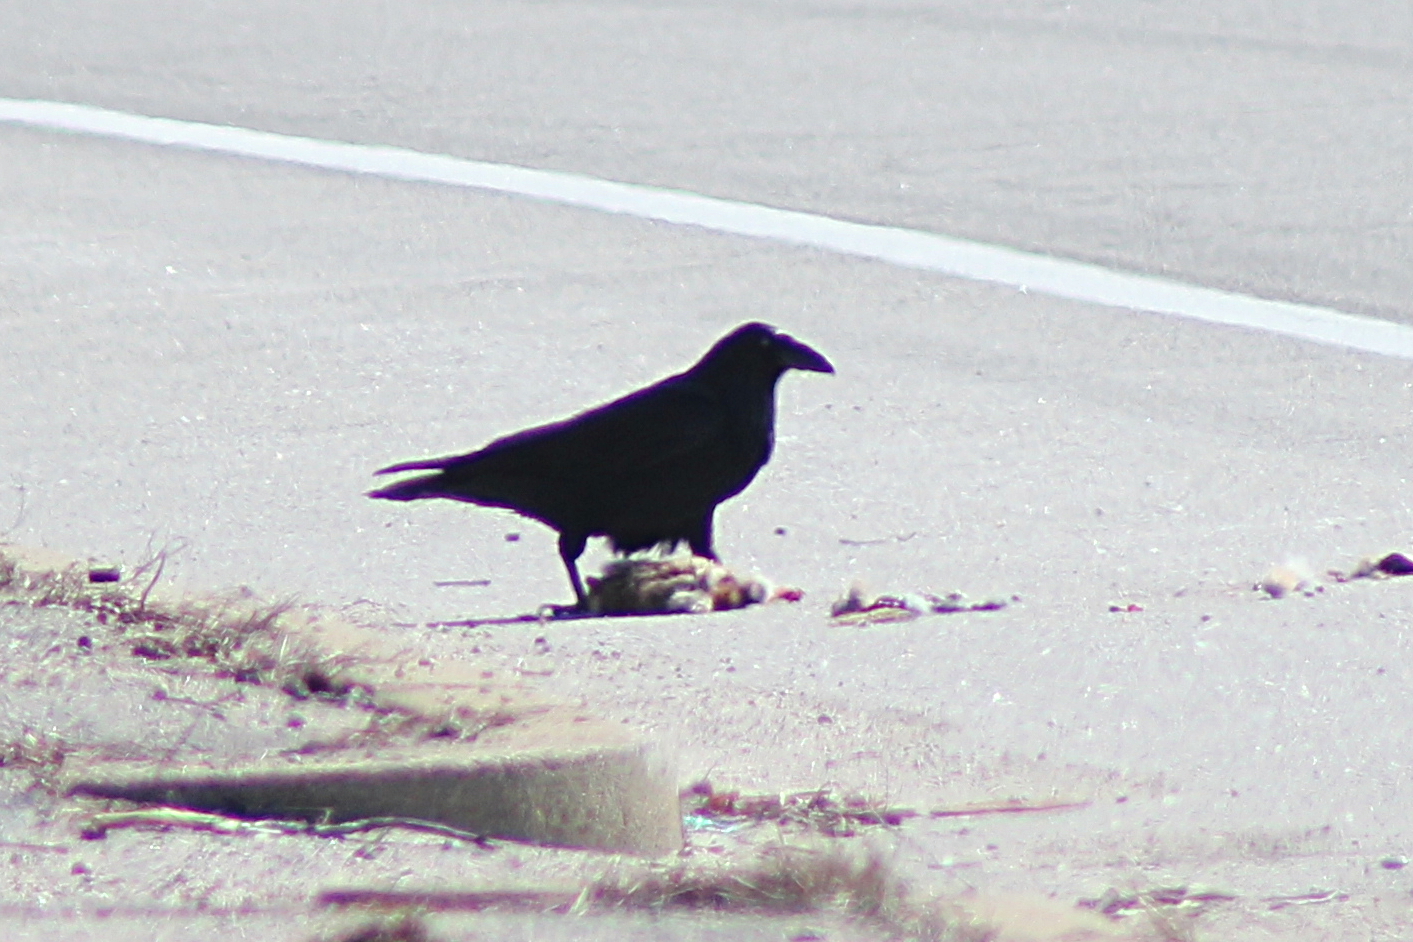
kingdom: Animalia
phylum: Chordata
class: Aves
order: Passeriformes
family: Corvidae
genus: Corvus
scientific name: Corvus corax
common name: Common raven
